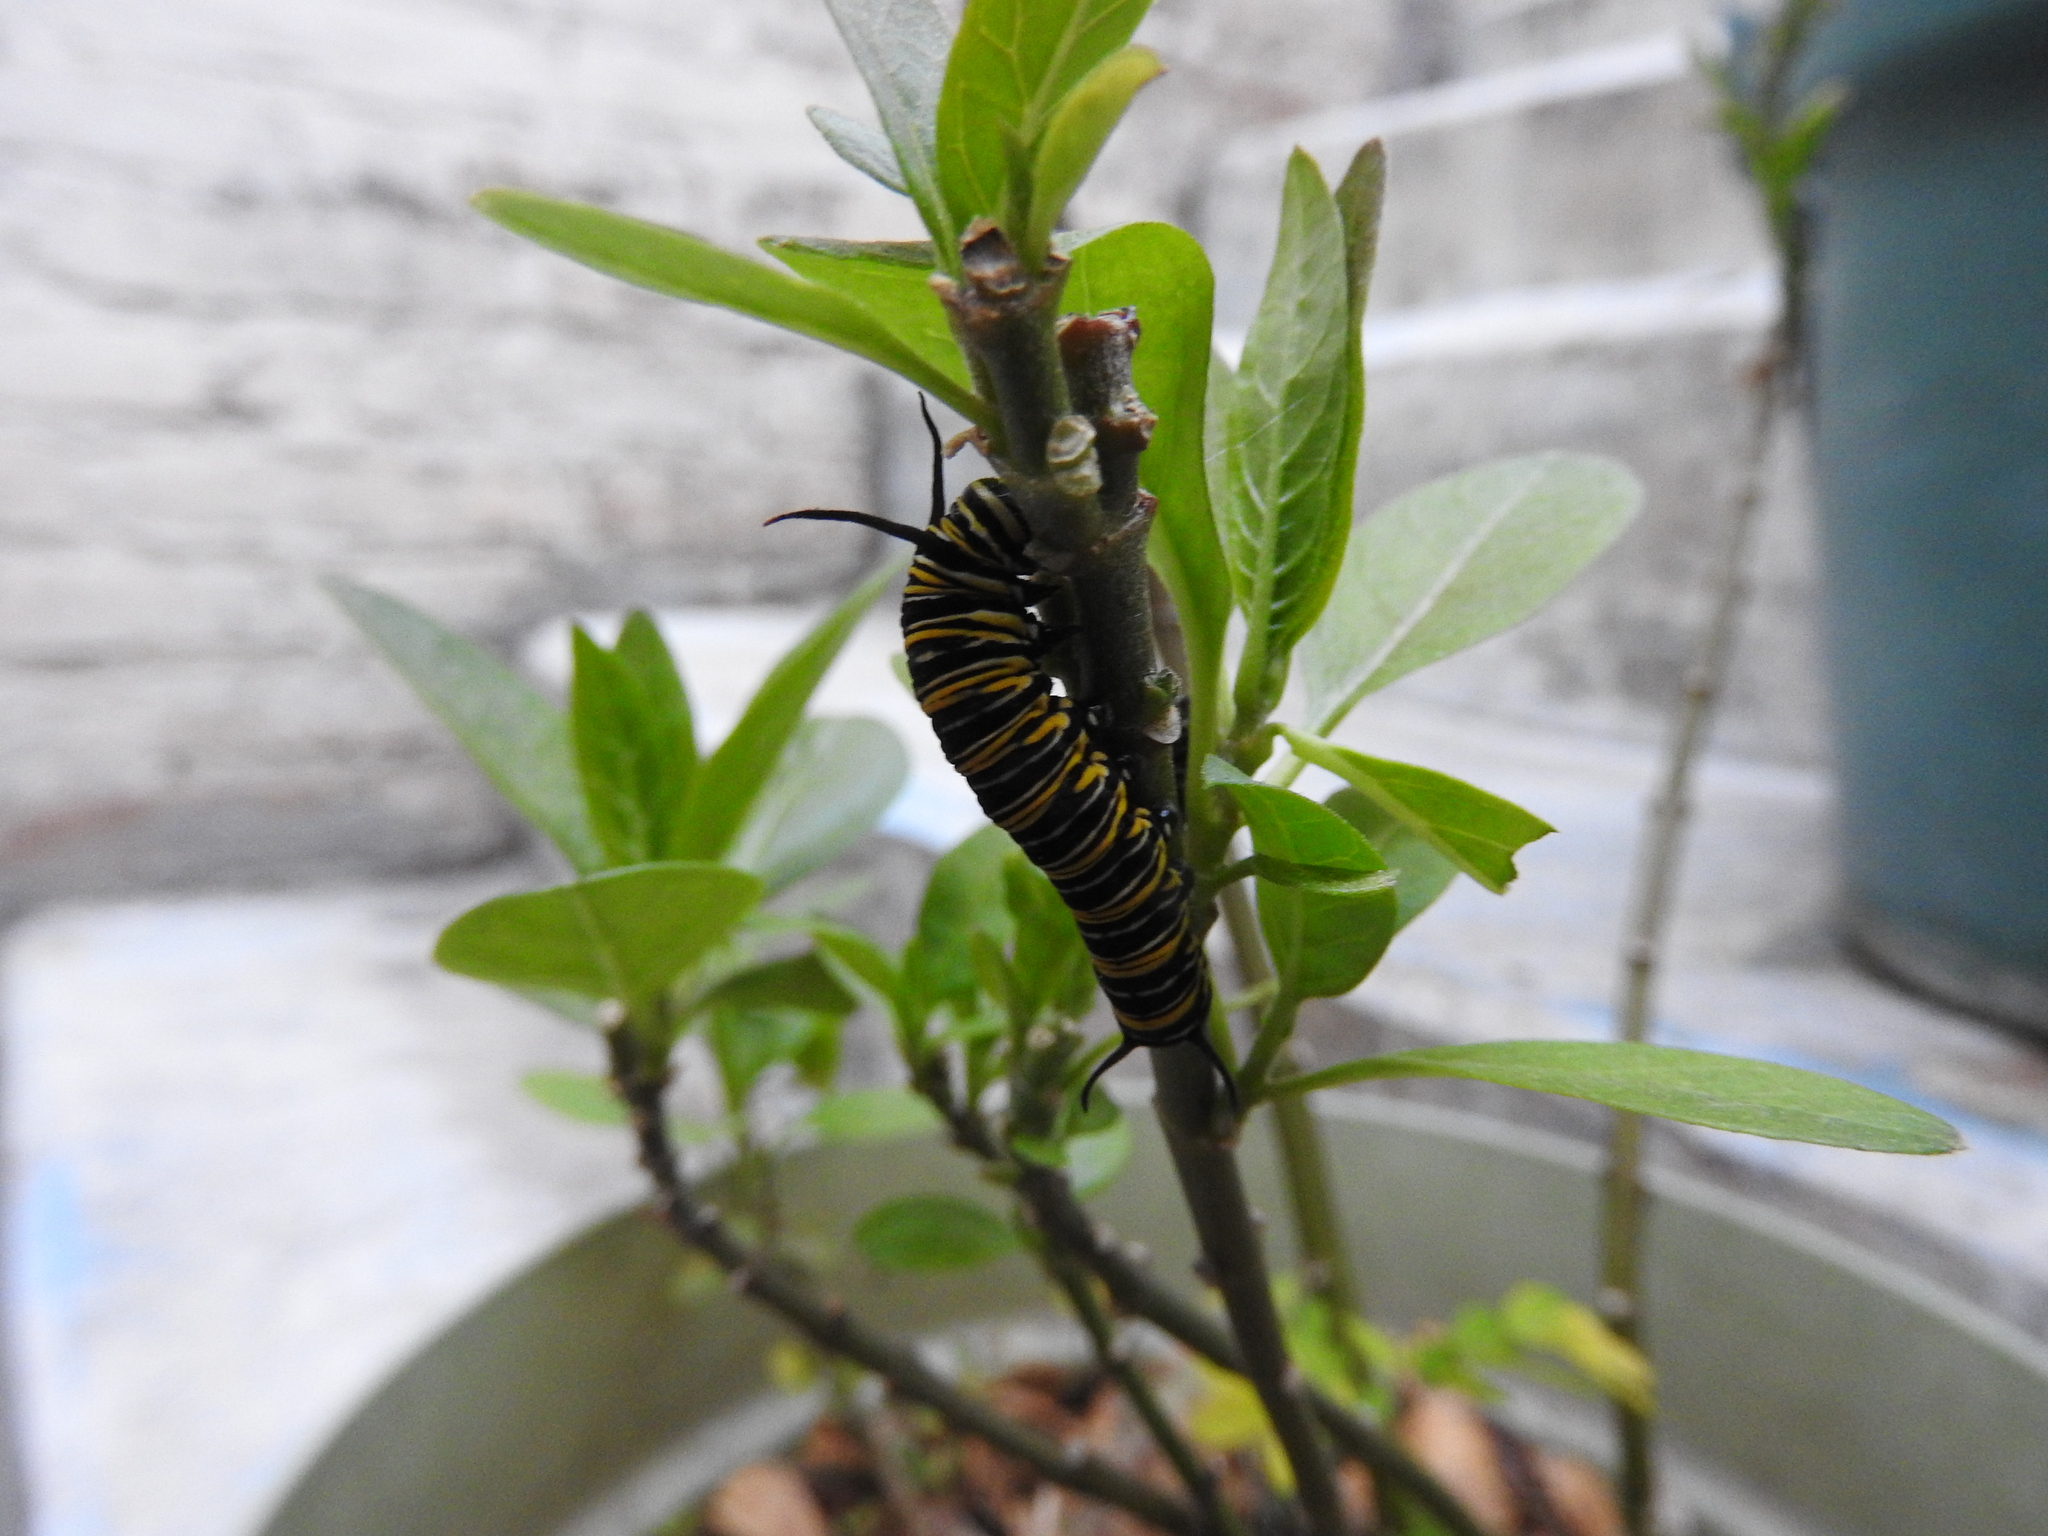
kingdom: Animalia
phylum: Arthropoda
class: Insecta
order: Lepidoptera
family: Nymphalidae
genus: Danaus
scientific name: Danaus plexippus
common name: Monarch
